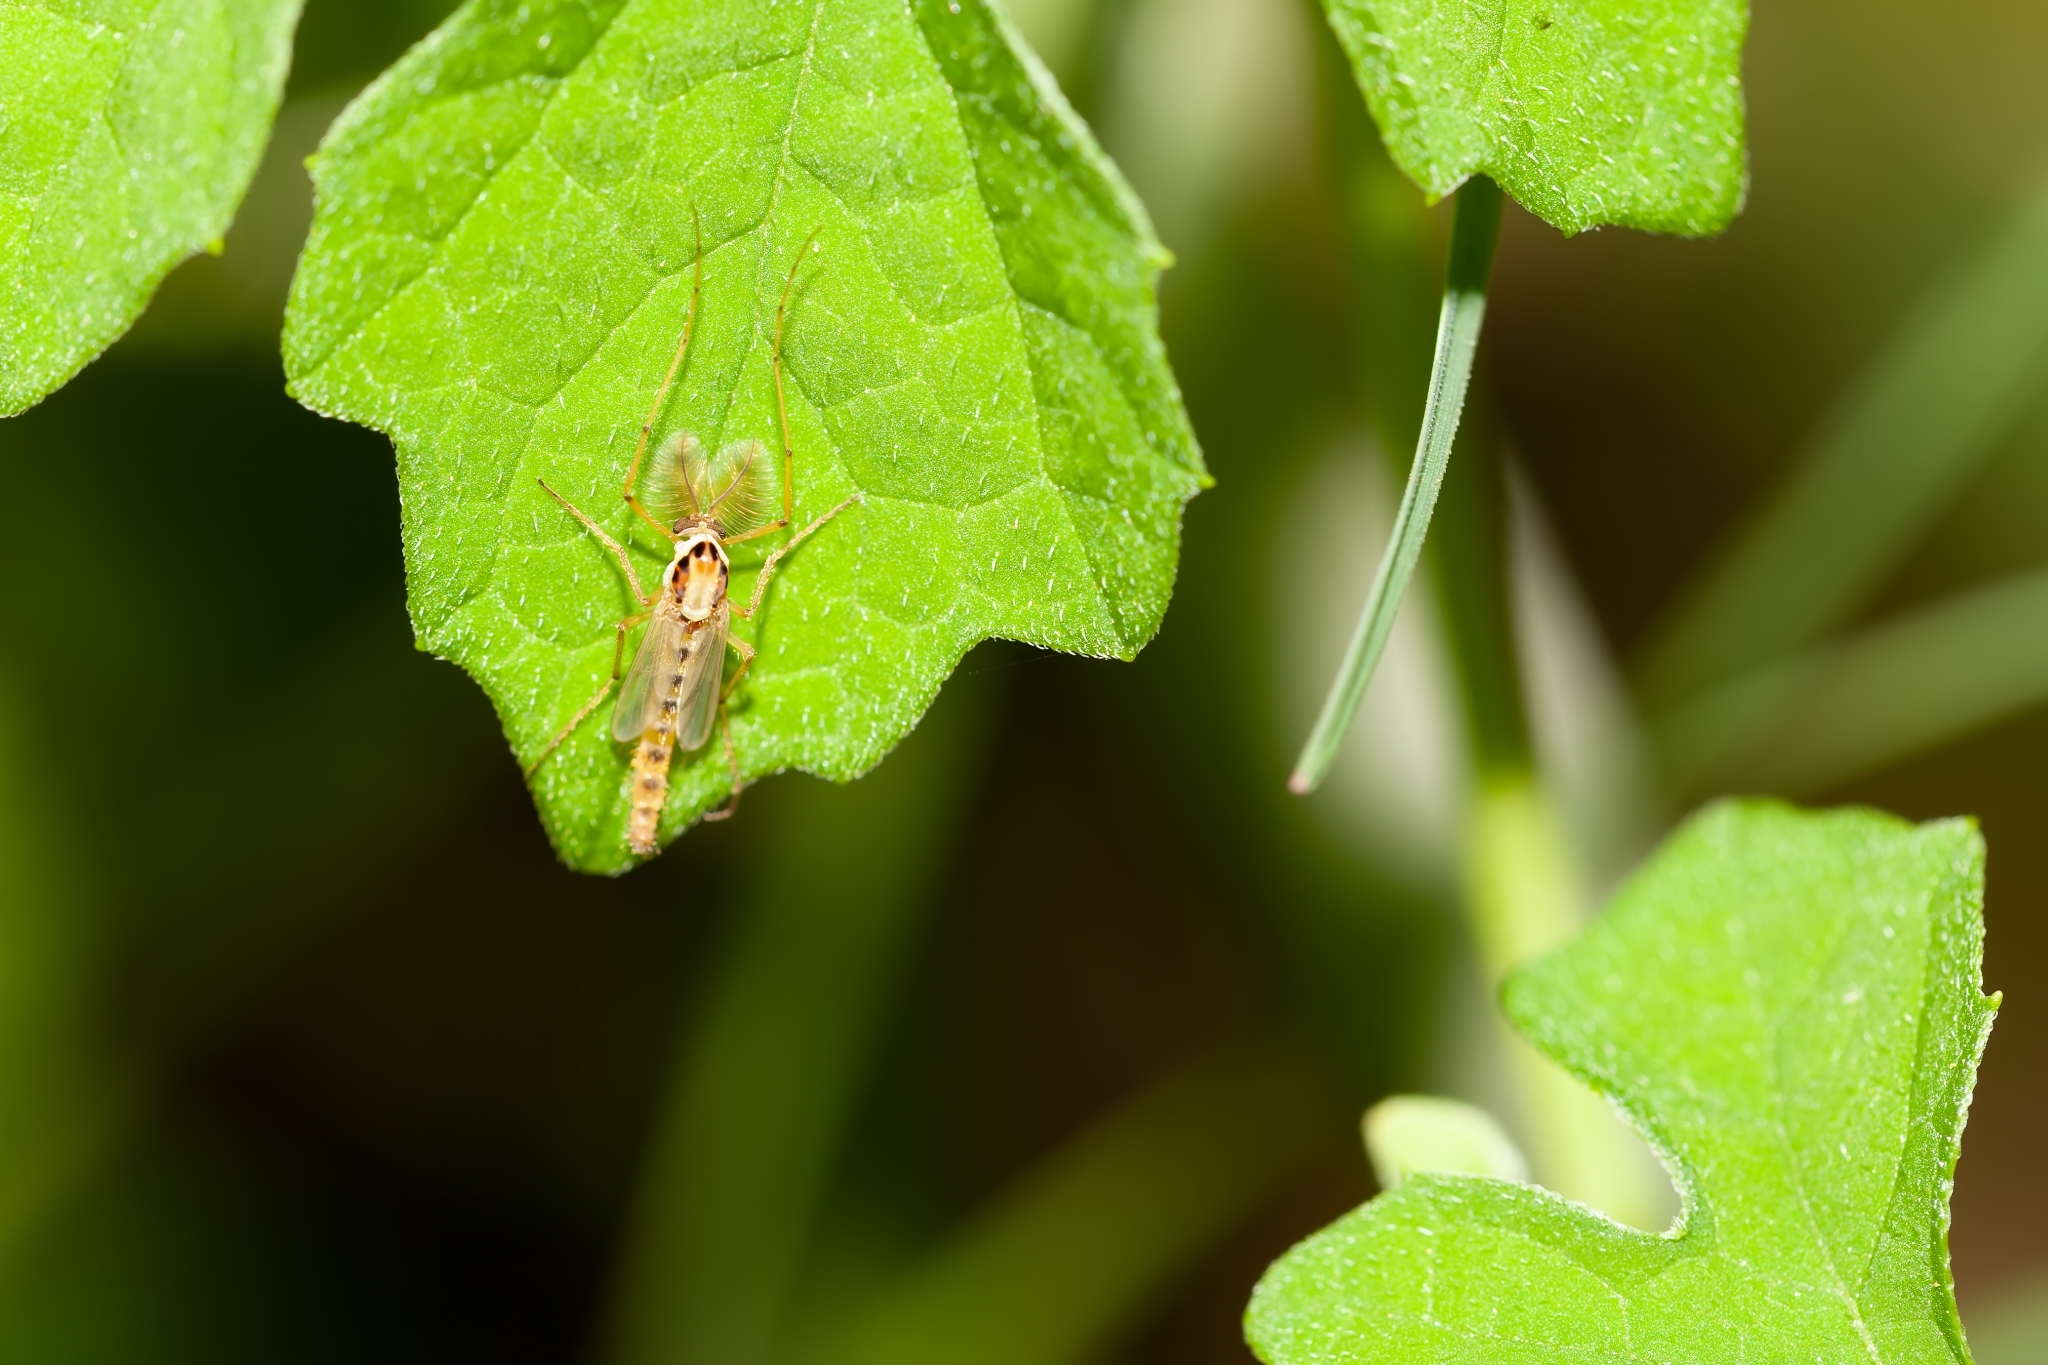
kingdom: Animalia
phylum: Arthropoda
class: Insecta
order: Diptera
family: Chironomidae
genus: Goeldichironomus
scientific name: Goeldichironomus carus
